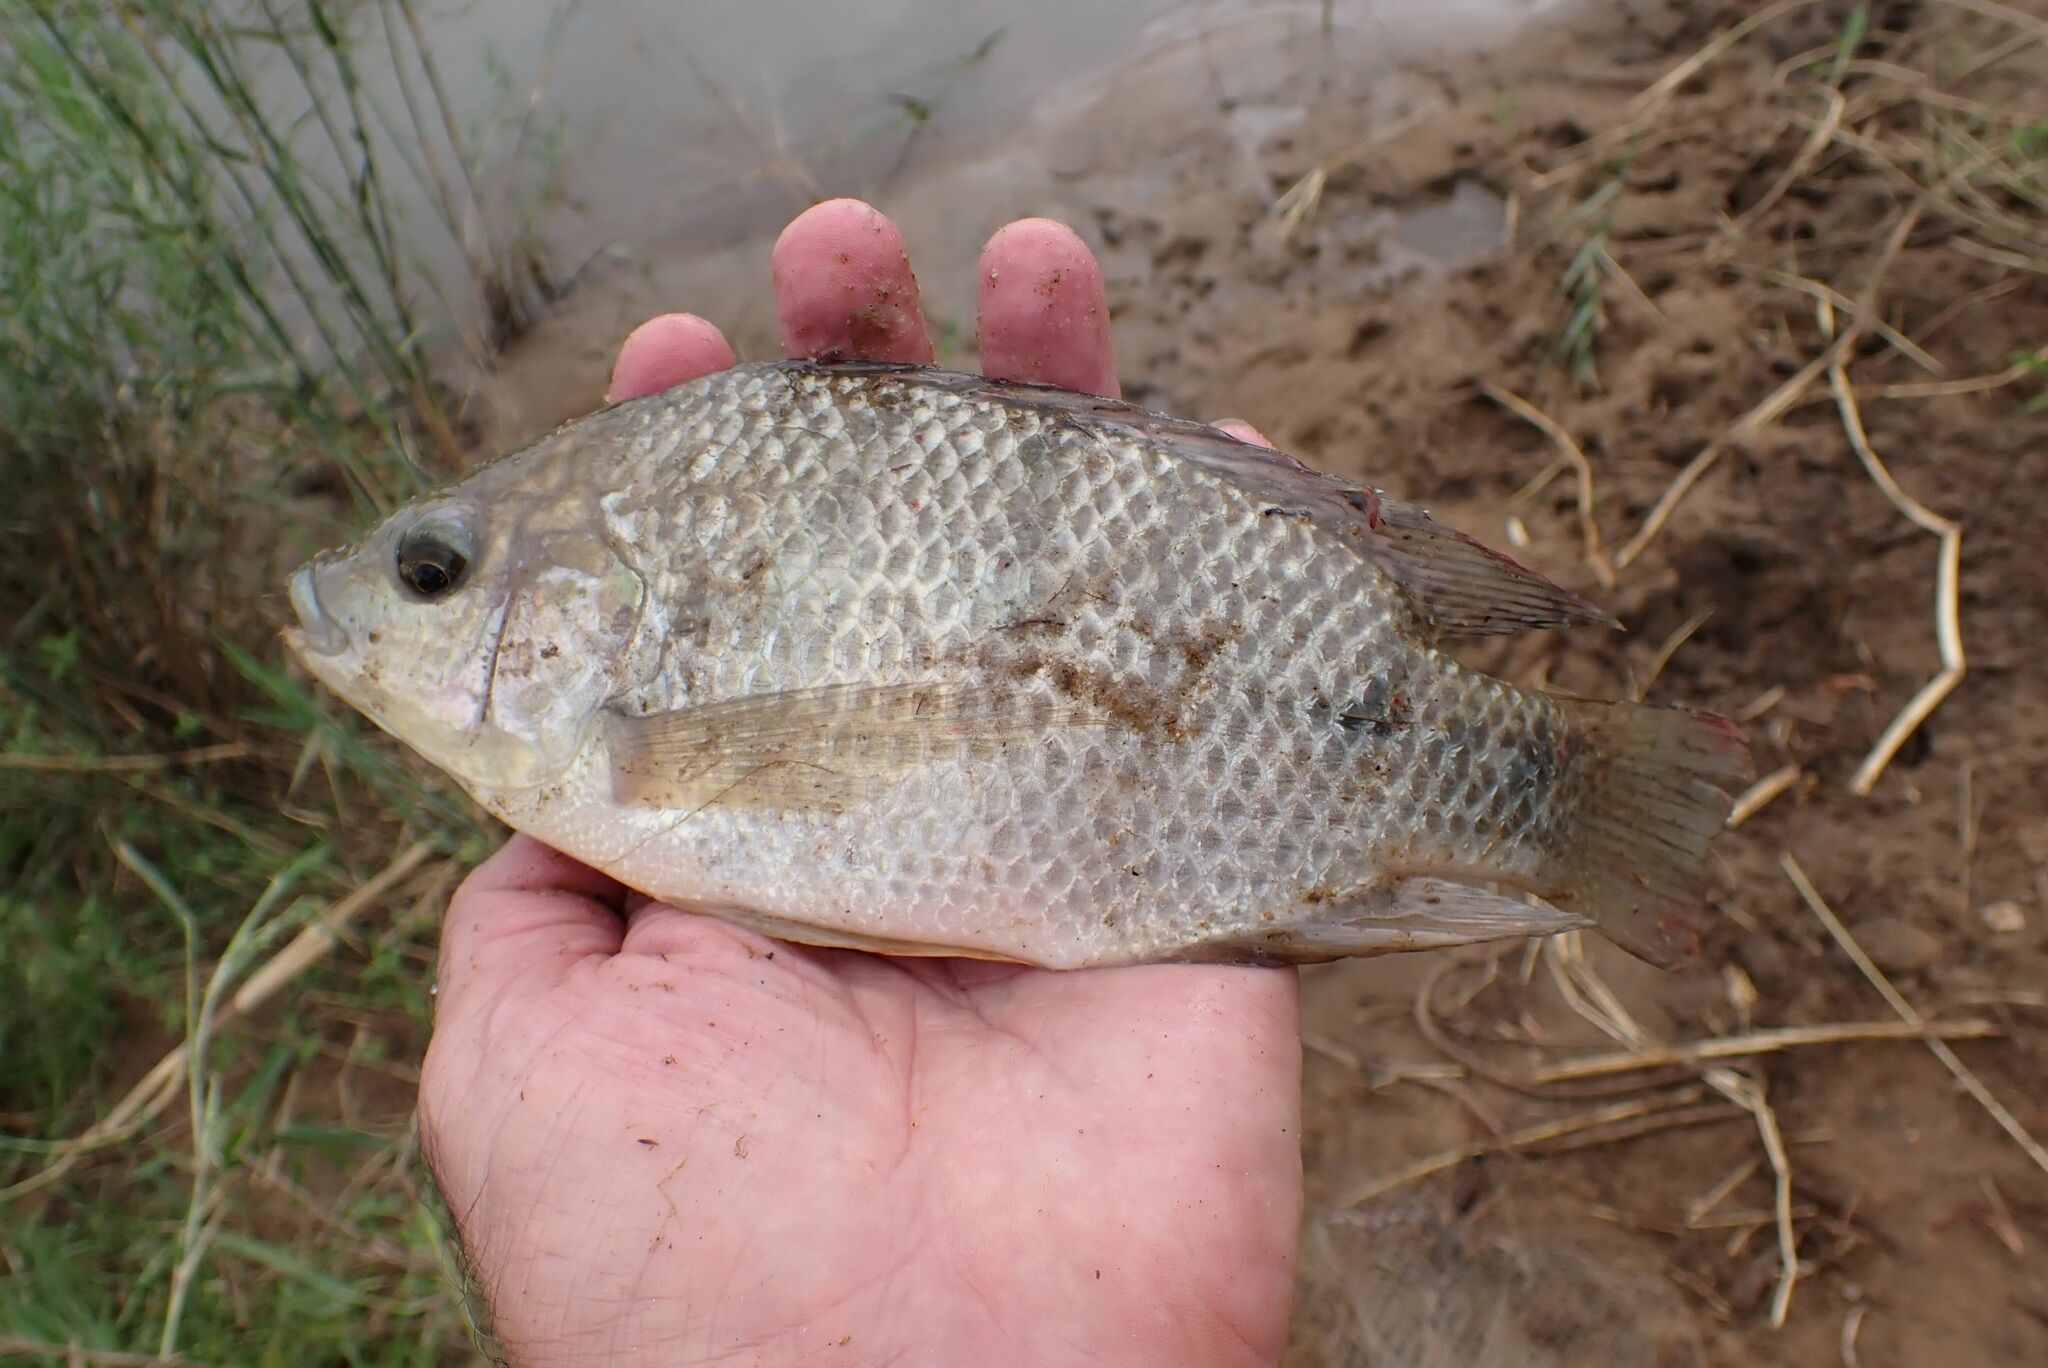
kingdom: Animalia
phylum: Chordata
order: Perciformes
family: Cichlidae
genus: Oreochromis
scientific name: Oreochromis mossambicus
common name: Mozambique tilapia
